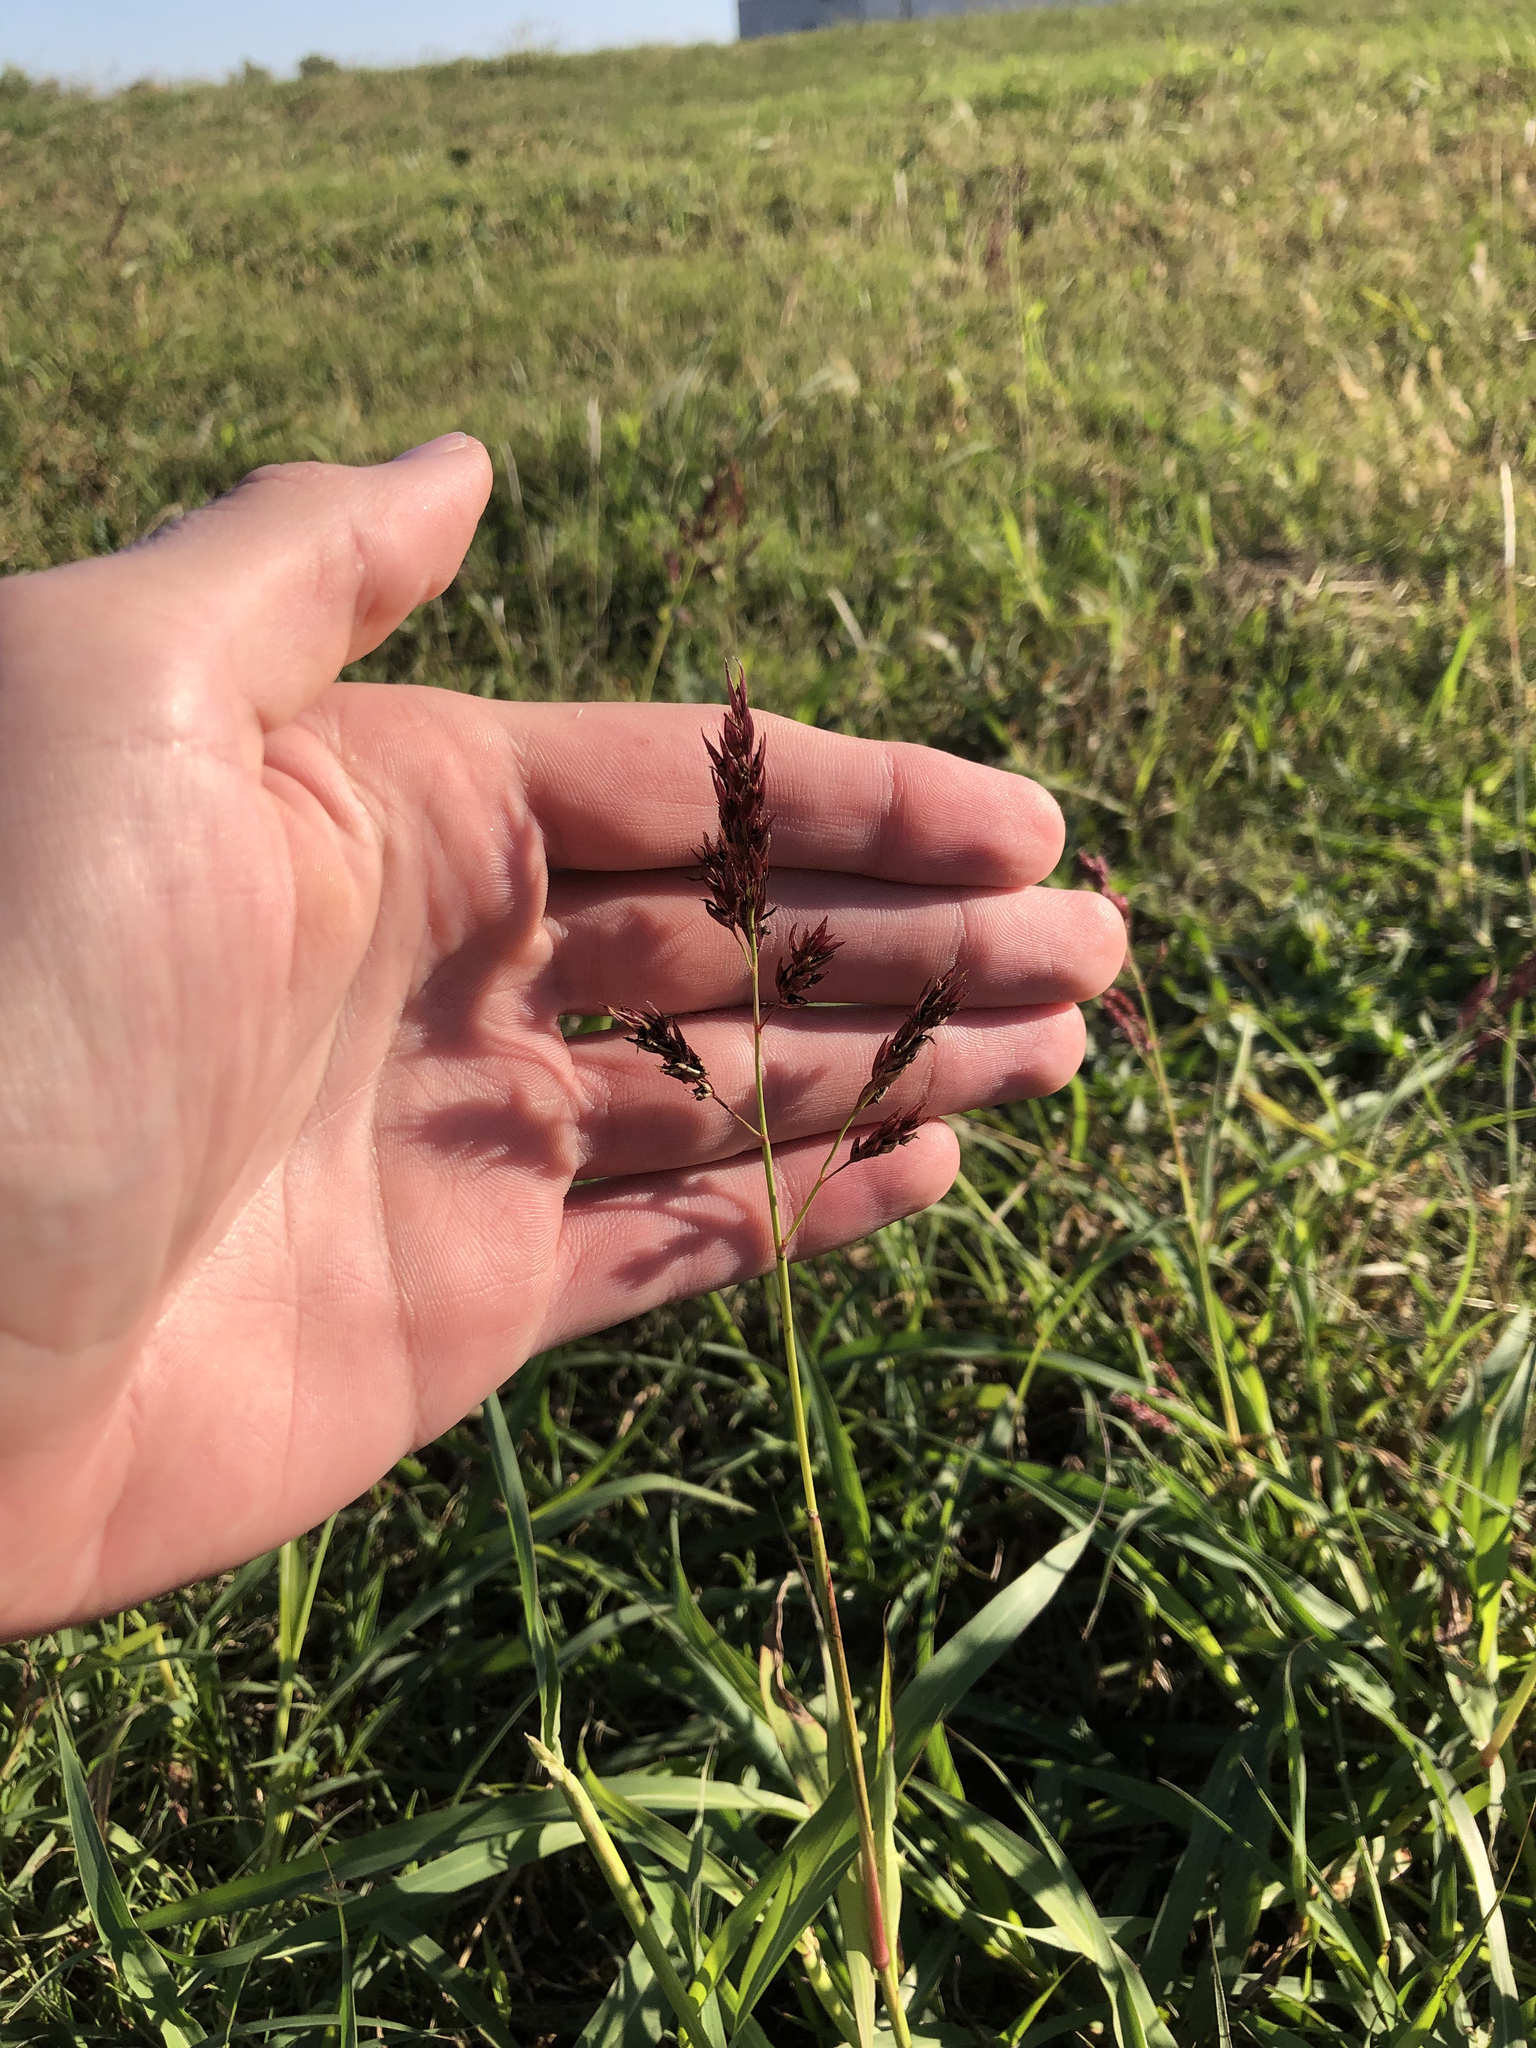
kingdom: Plantae
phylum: Tracheophyta
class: Liliopsida
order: Poales
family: Poaceae
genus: Sorghum
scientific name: Sorghum halepense
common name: Johnson-grass
